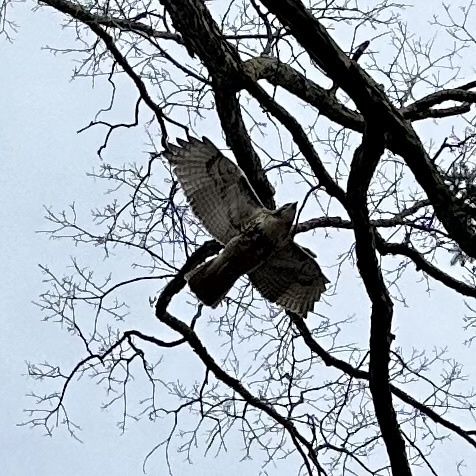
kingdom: Animalia
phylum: Chordata
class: Aves
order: Accipitriformes
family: Accipitridae
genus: Buteo
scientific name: Buteo jamaicensis
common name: Red-tailed hawk
